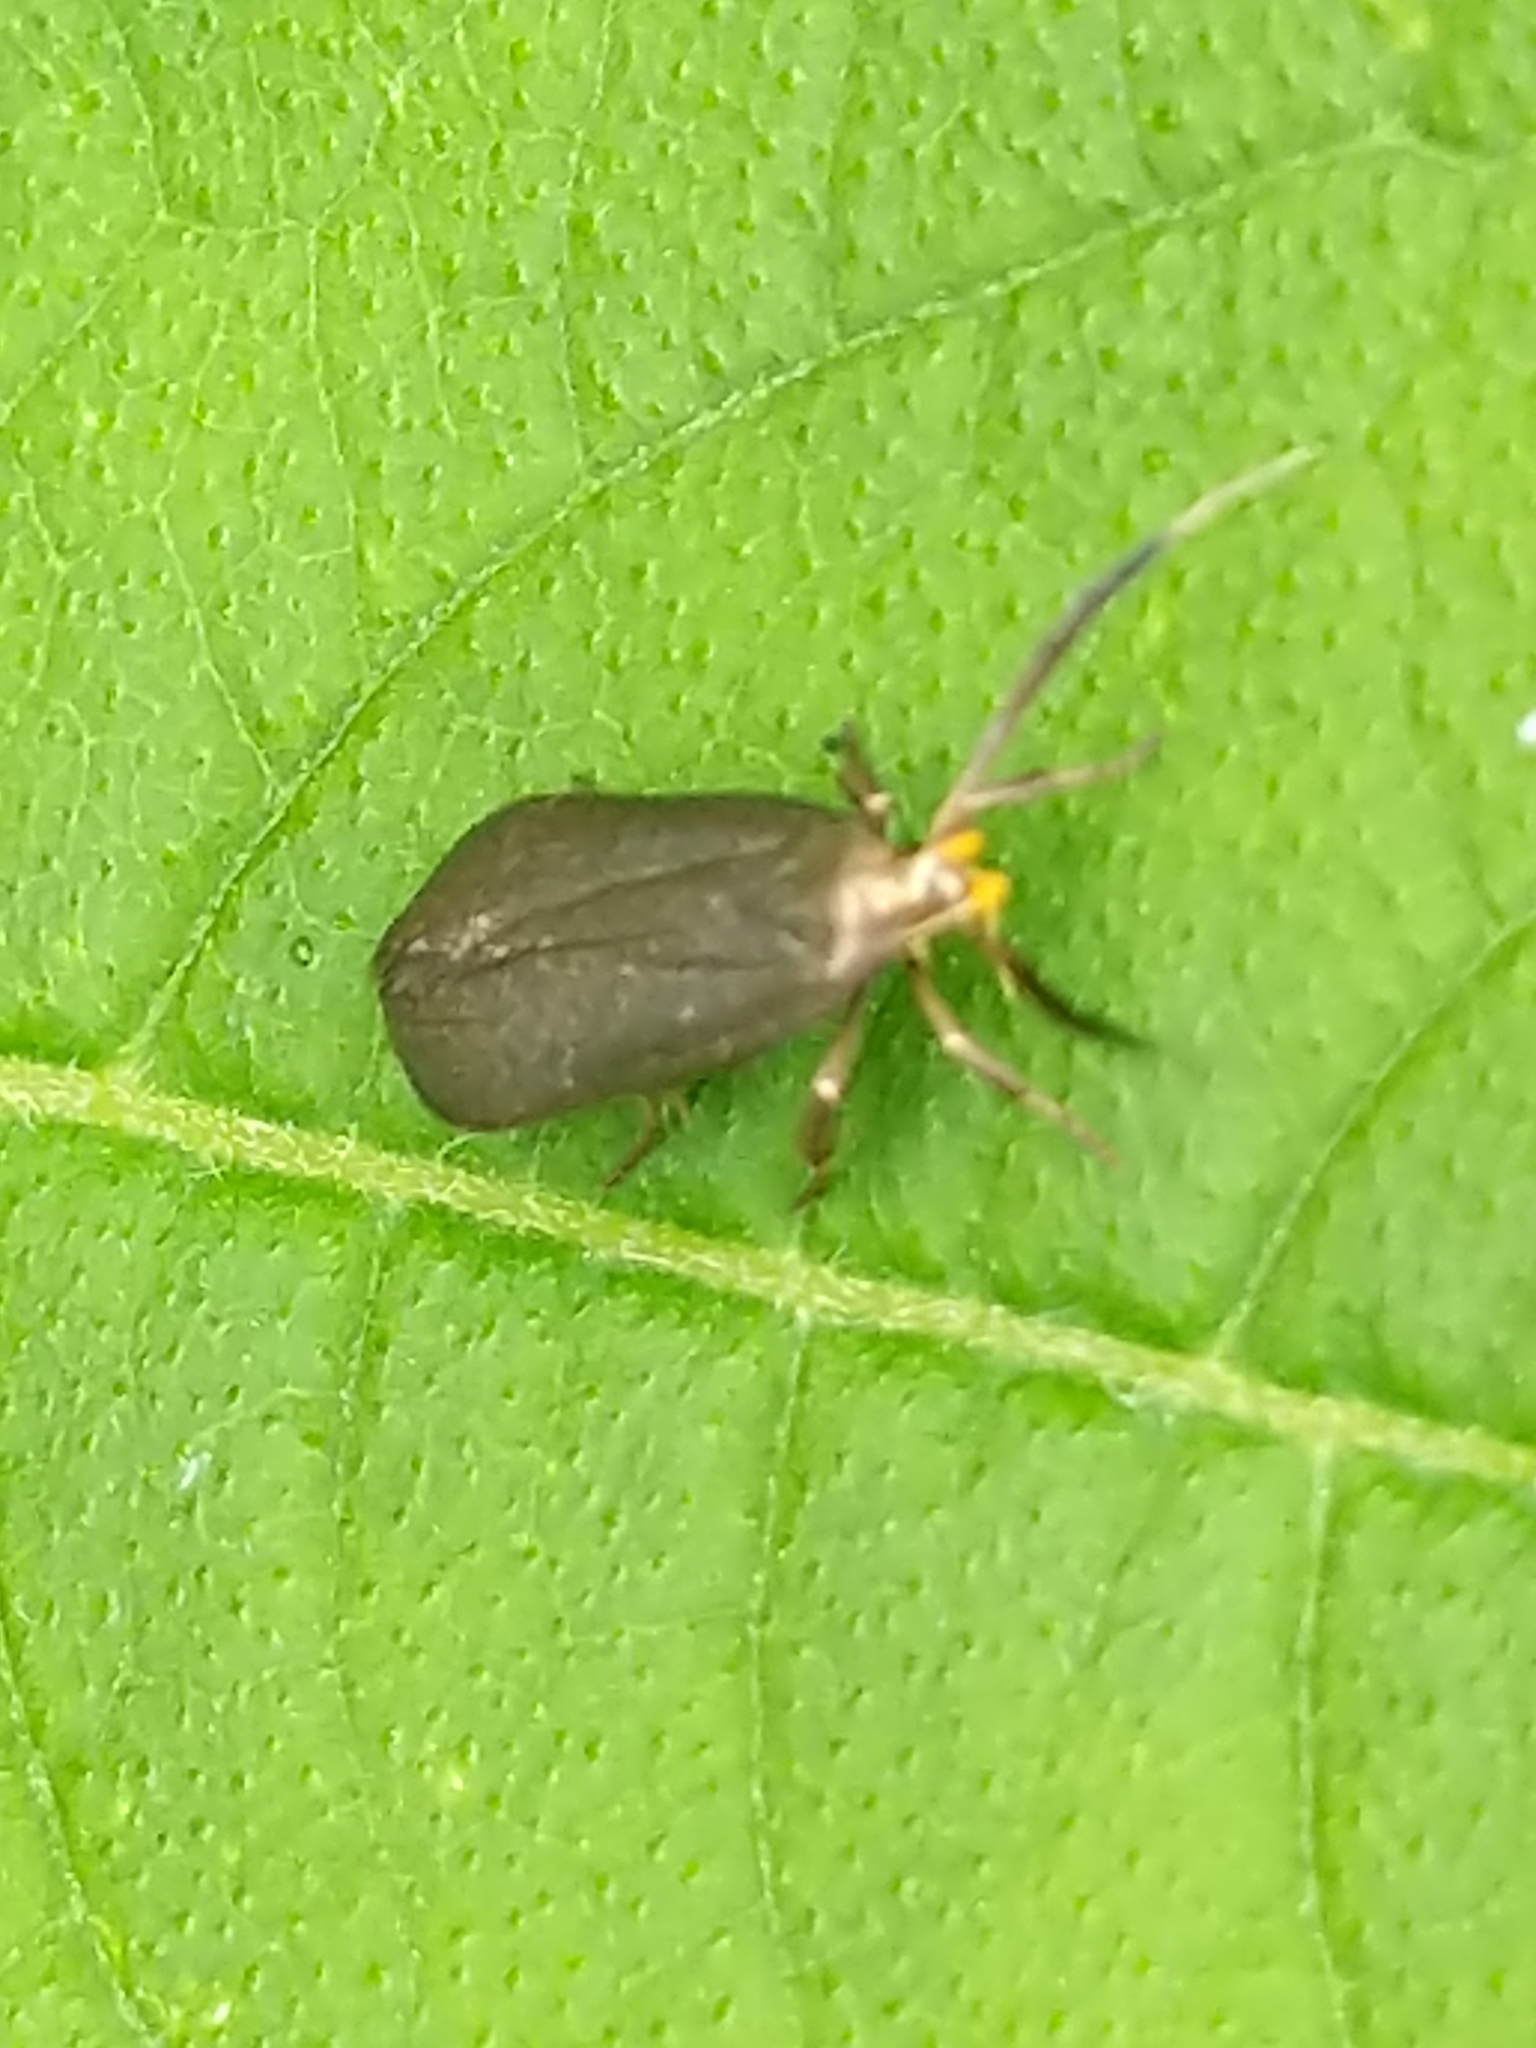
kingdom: Animalia
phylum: Arthropoda
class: Insecta
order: Lepidoptera
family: Gelechiidae
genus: Dichomeris
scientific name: Dichomeris nonstrigella
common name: Little devil moth
